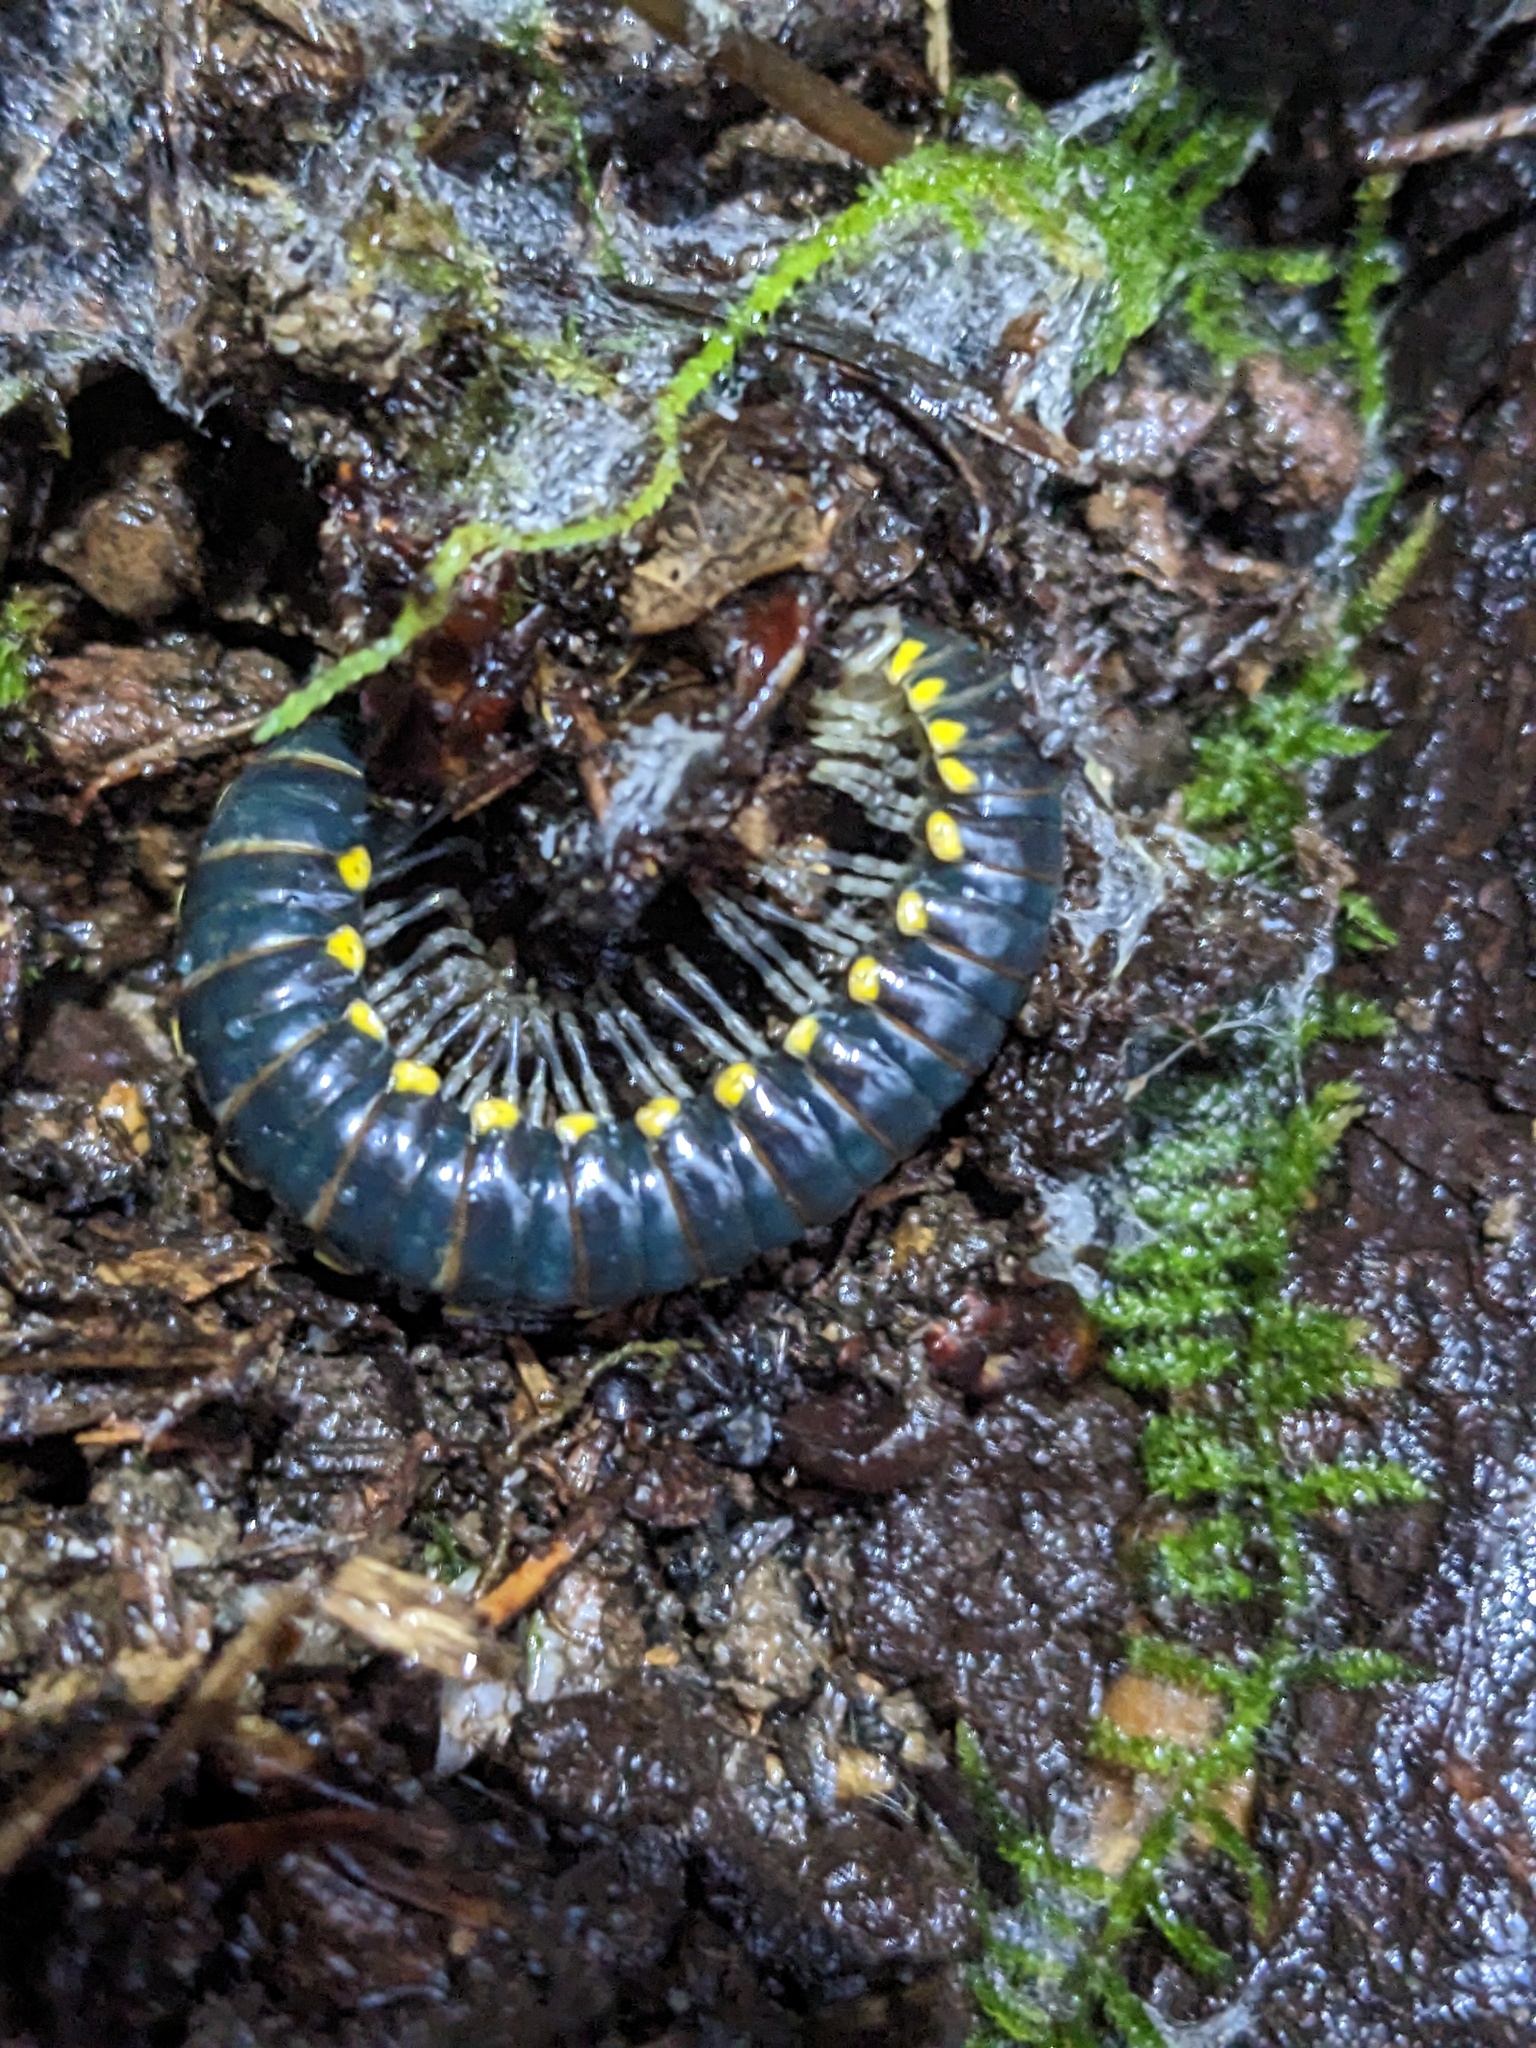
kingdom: Animalia
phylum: Arthropoda
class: Diplopoda
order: Polydesmida
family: Xystodesmidae
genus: Harpaphe
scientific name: Harpaphe haydeniana
